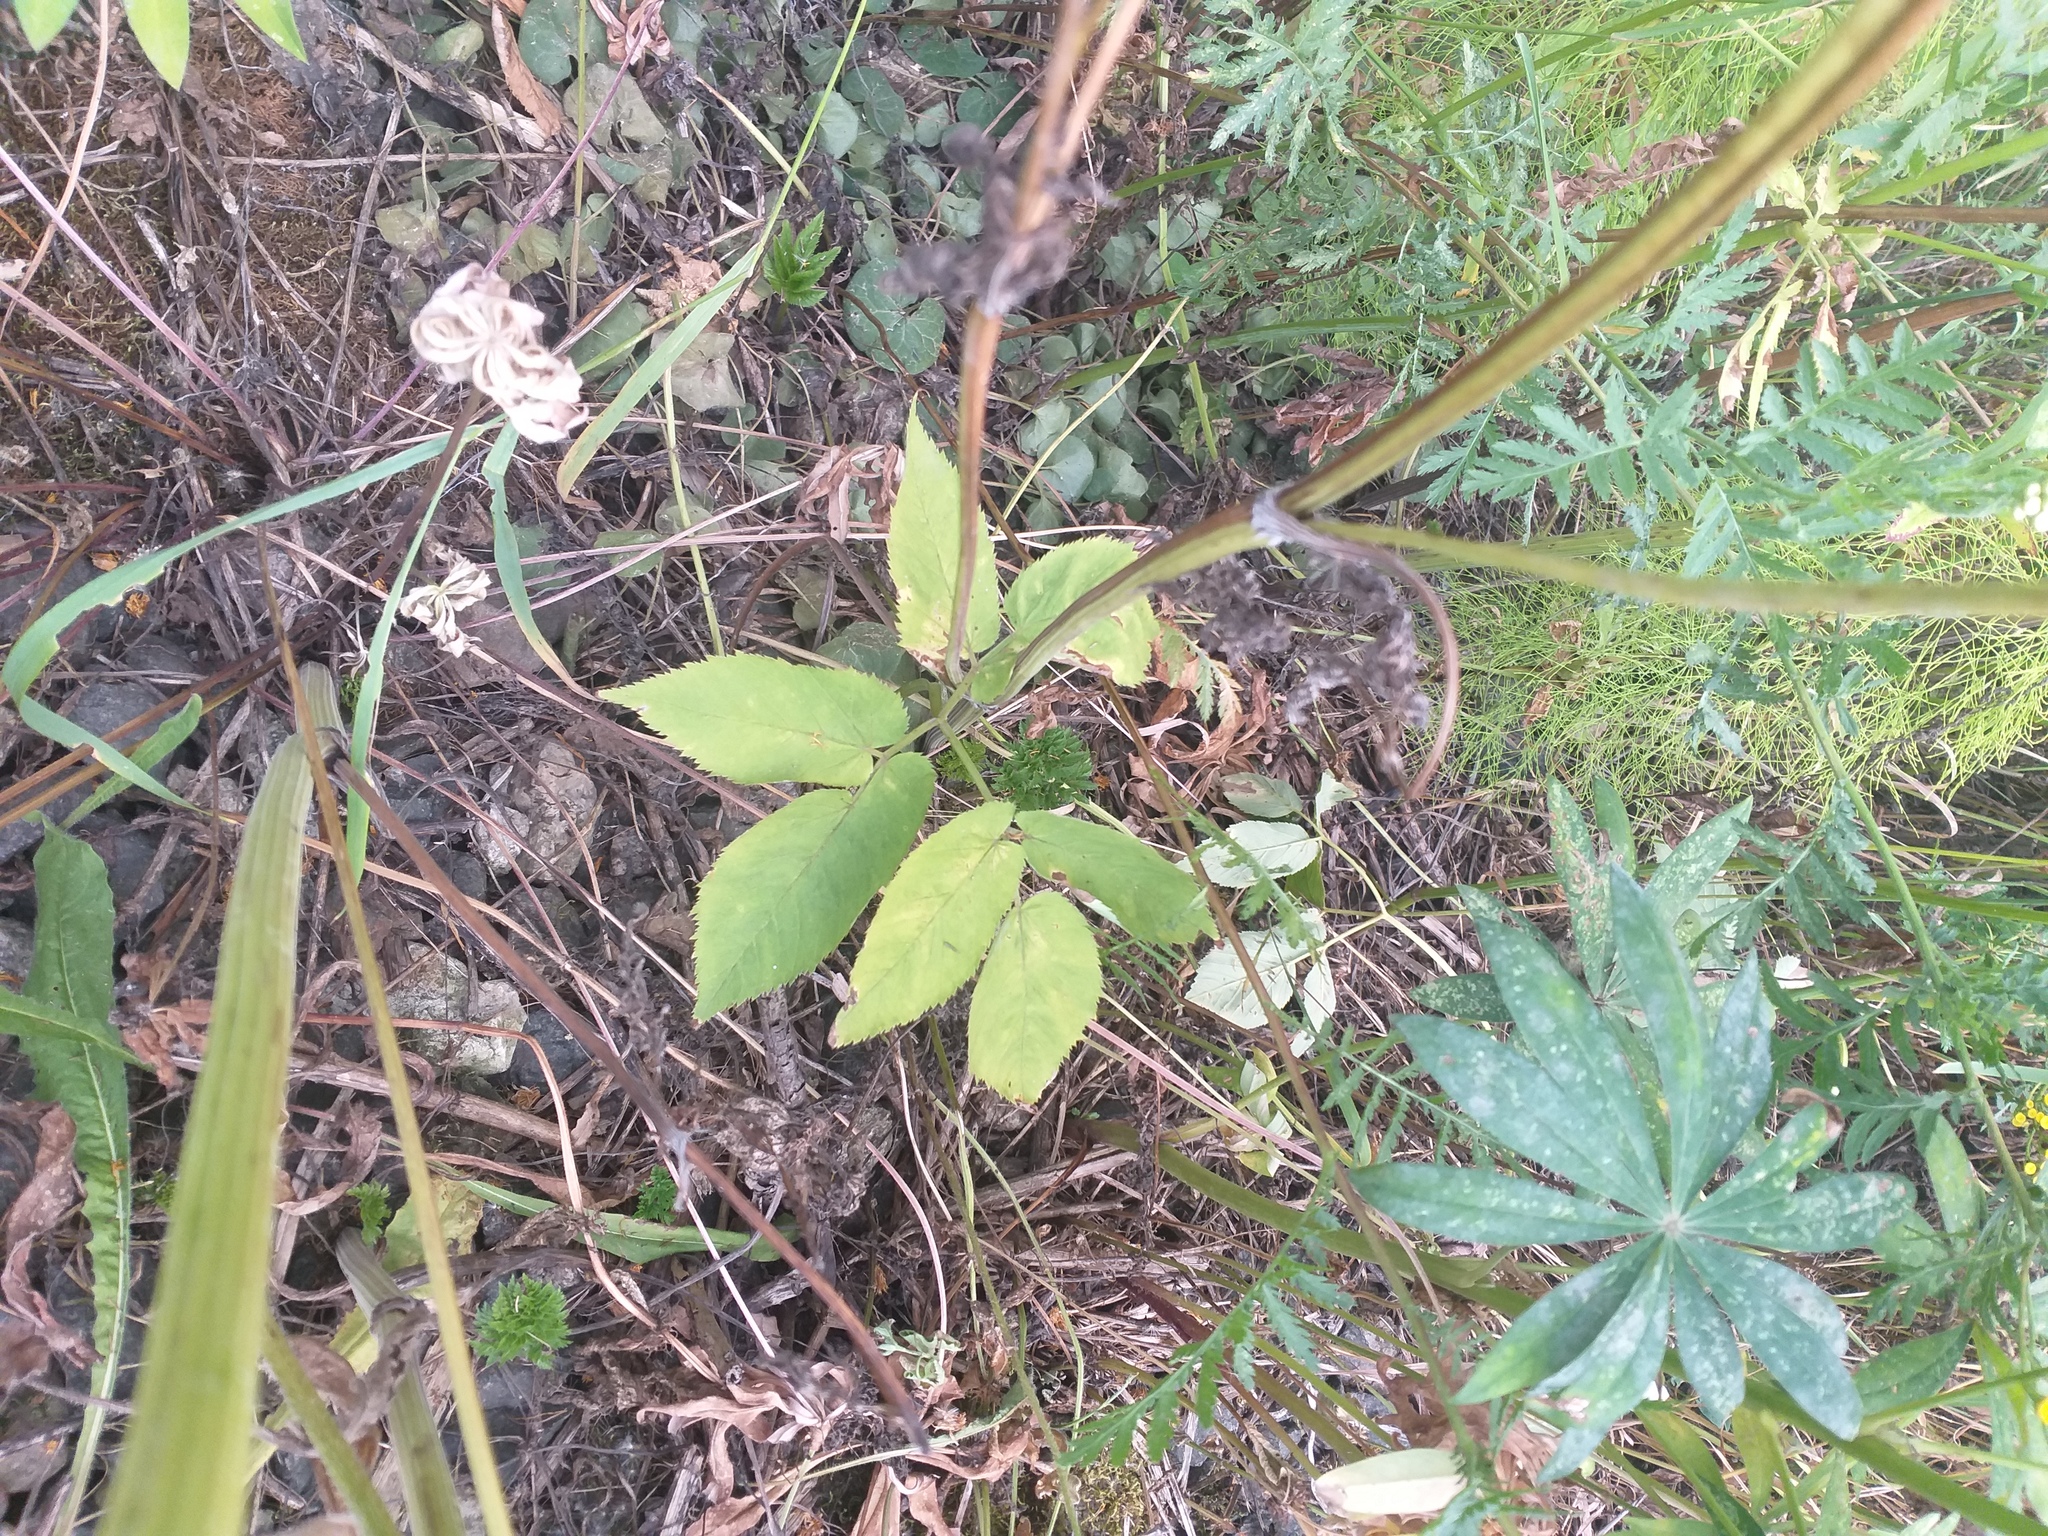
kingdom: Plantae
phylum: Tracheophyta
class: Magnoliopsida
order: Apiales
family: Apiaceae
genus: Aegopodium
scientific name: Aegopodium podagraria
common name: Ground-elder
